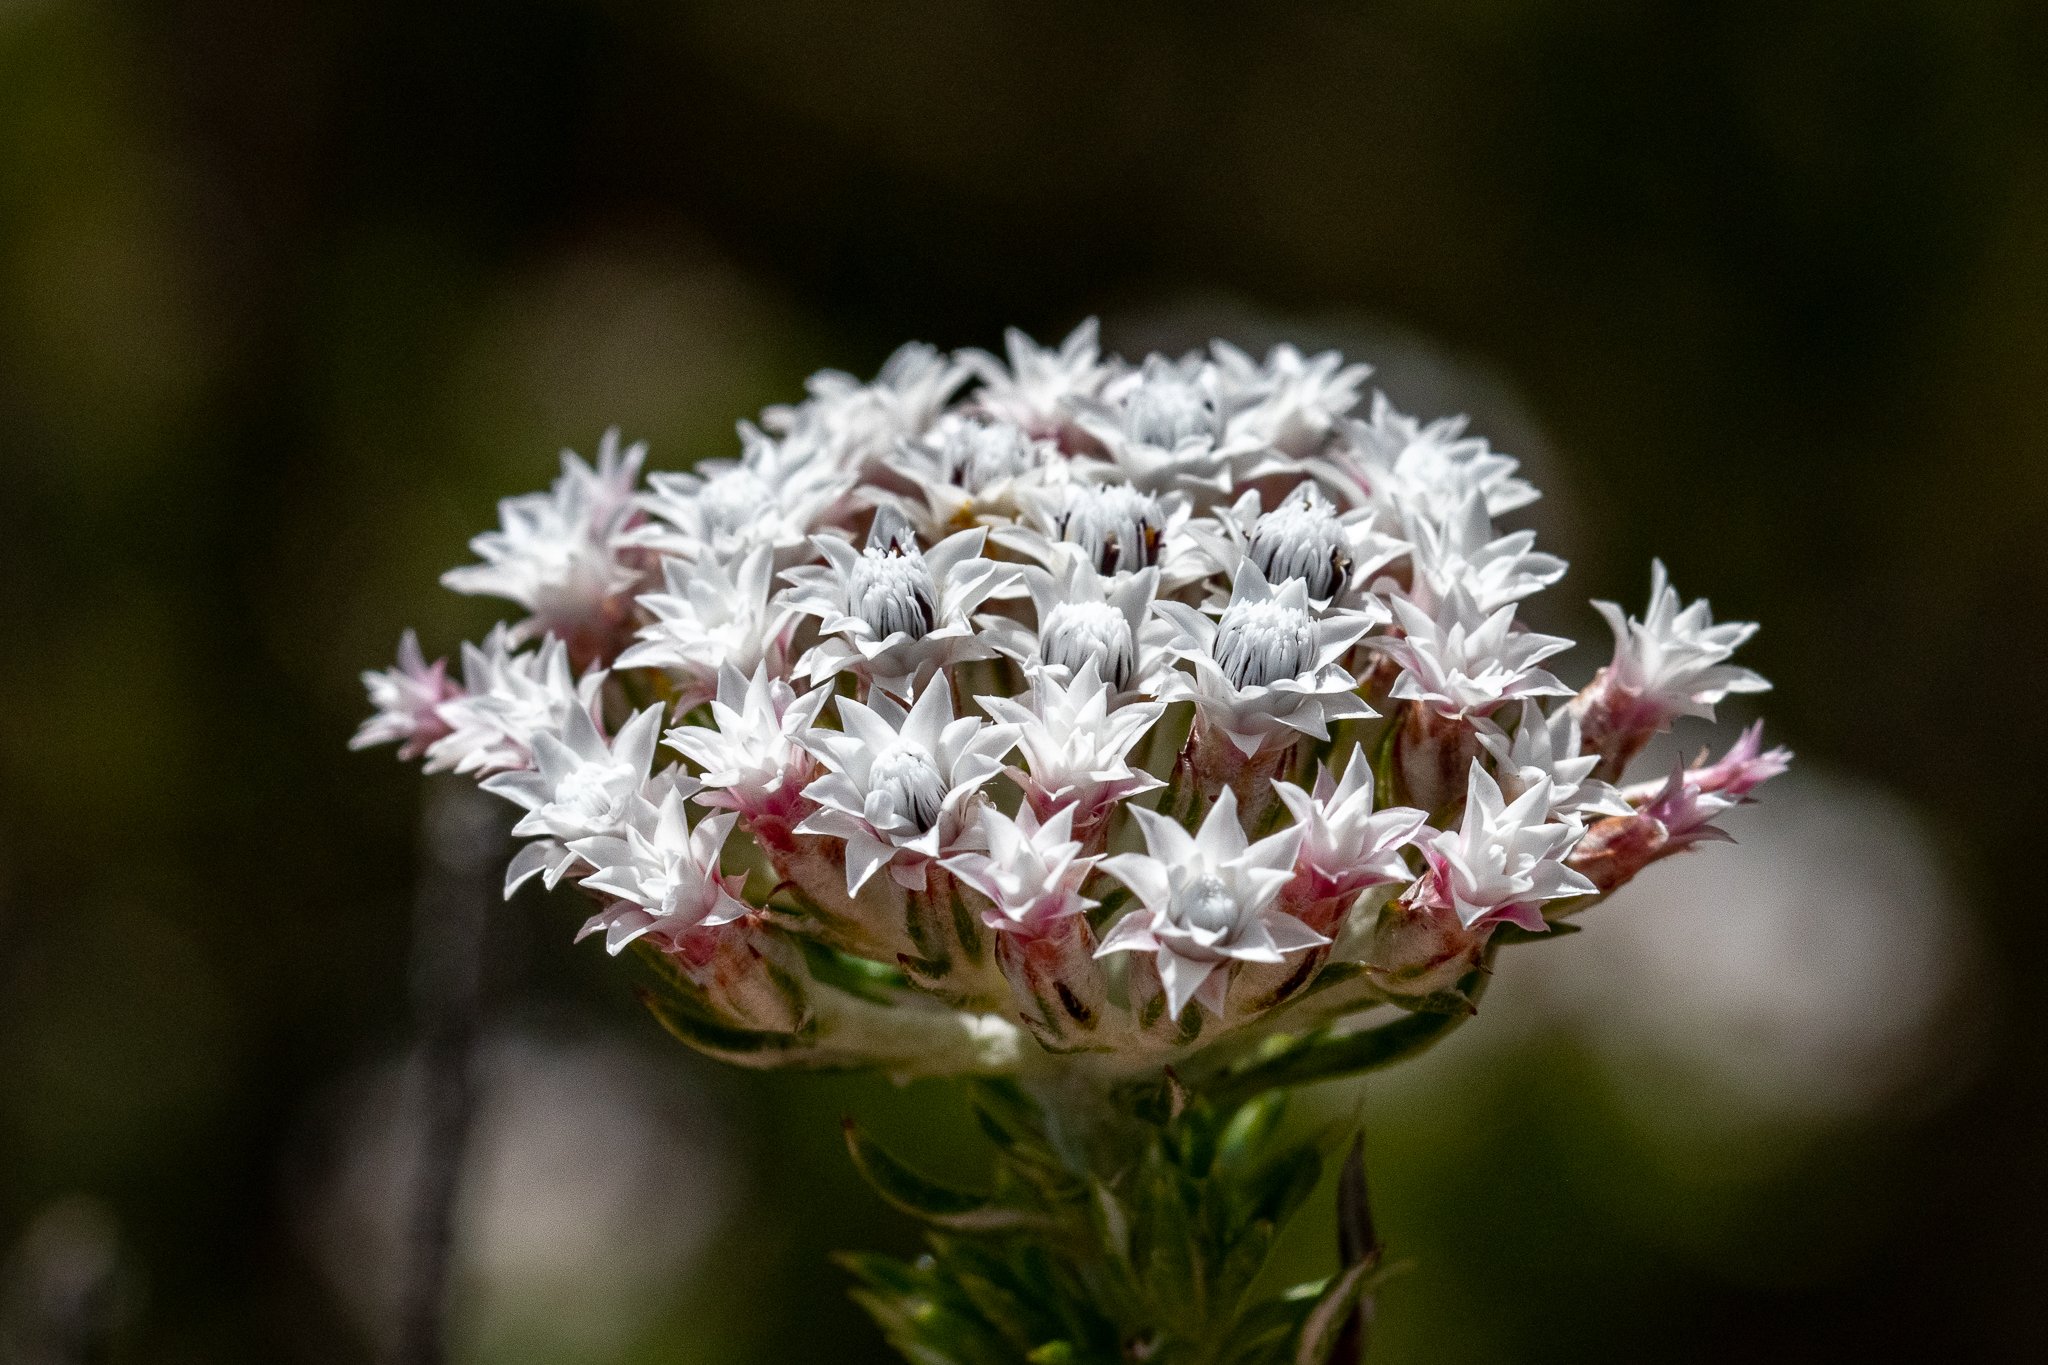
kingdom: Plantae
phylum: Tracheophyta
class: Magnoliopsida
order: Asterales
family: Asteraceae
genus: Metalasia
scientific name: Metalasia lichtensteinii
